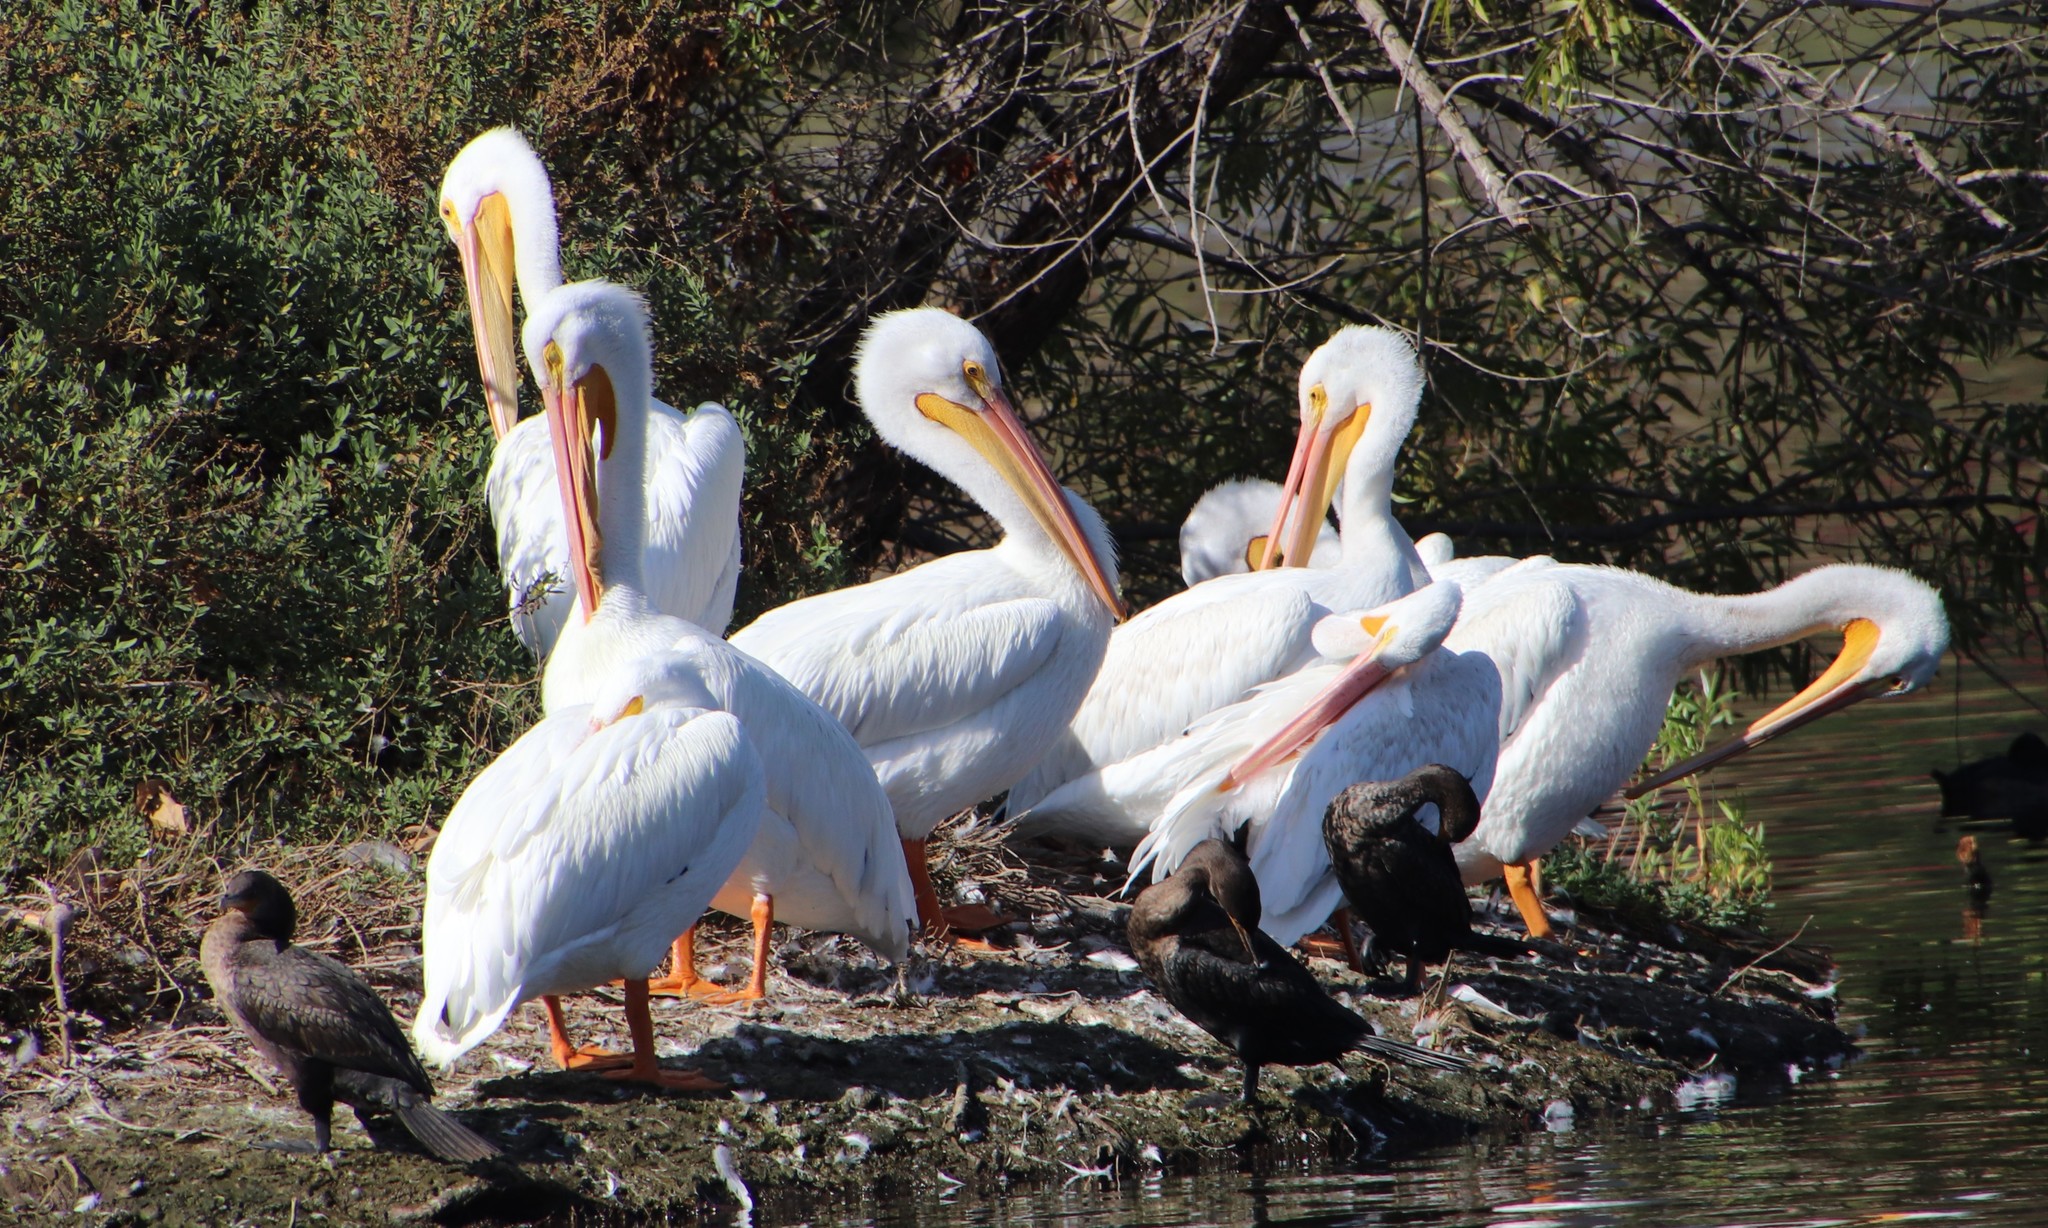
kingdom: Animalia
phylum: Chordata
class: Aves
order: Pelecaniformes
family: Pelecanidae
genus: Pelecanus
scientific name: Pelecanus erythrorhynchos
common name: American white pelican
